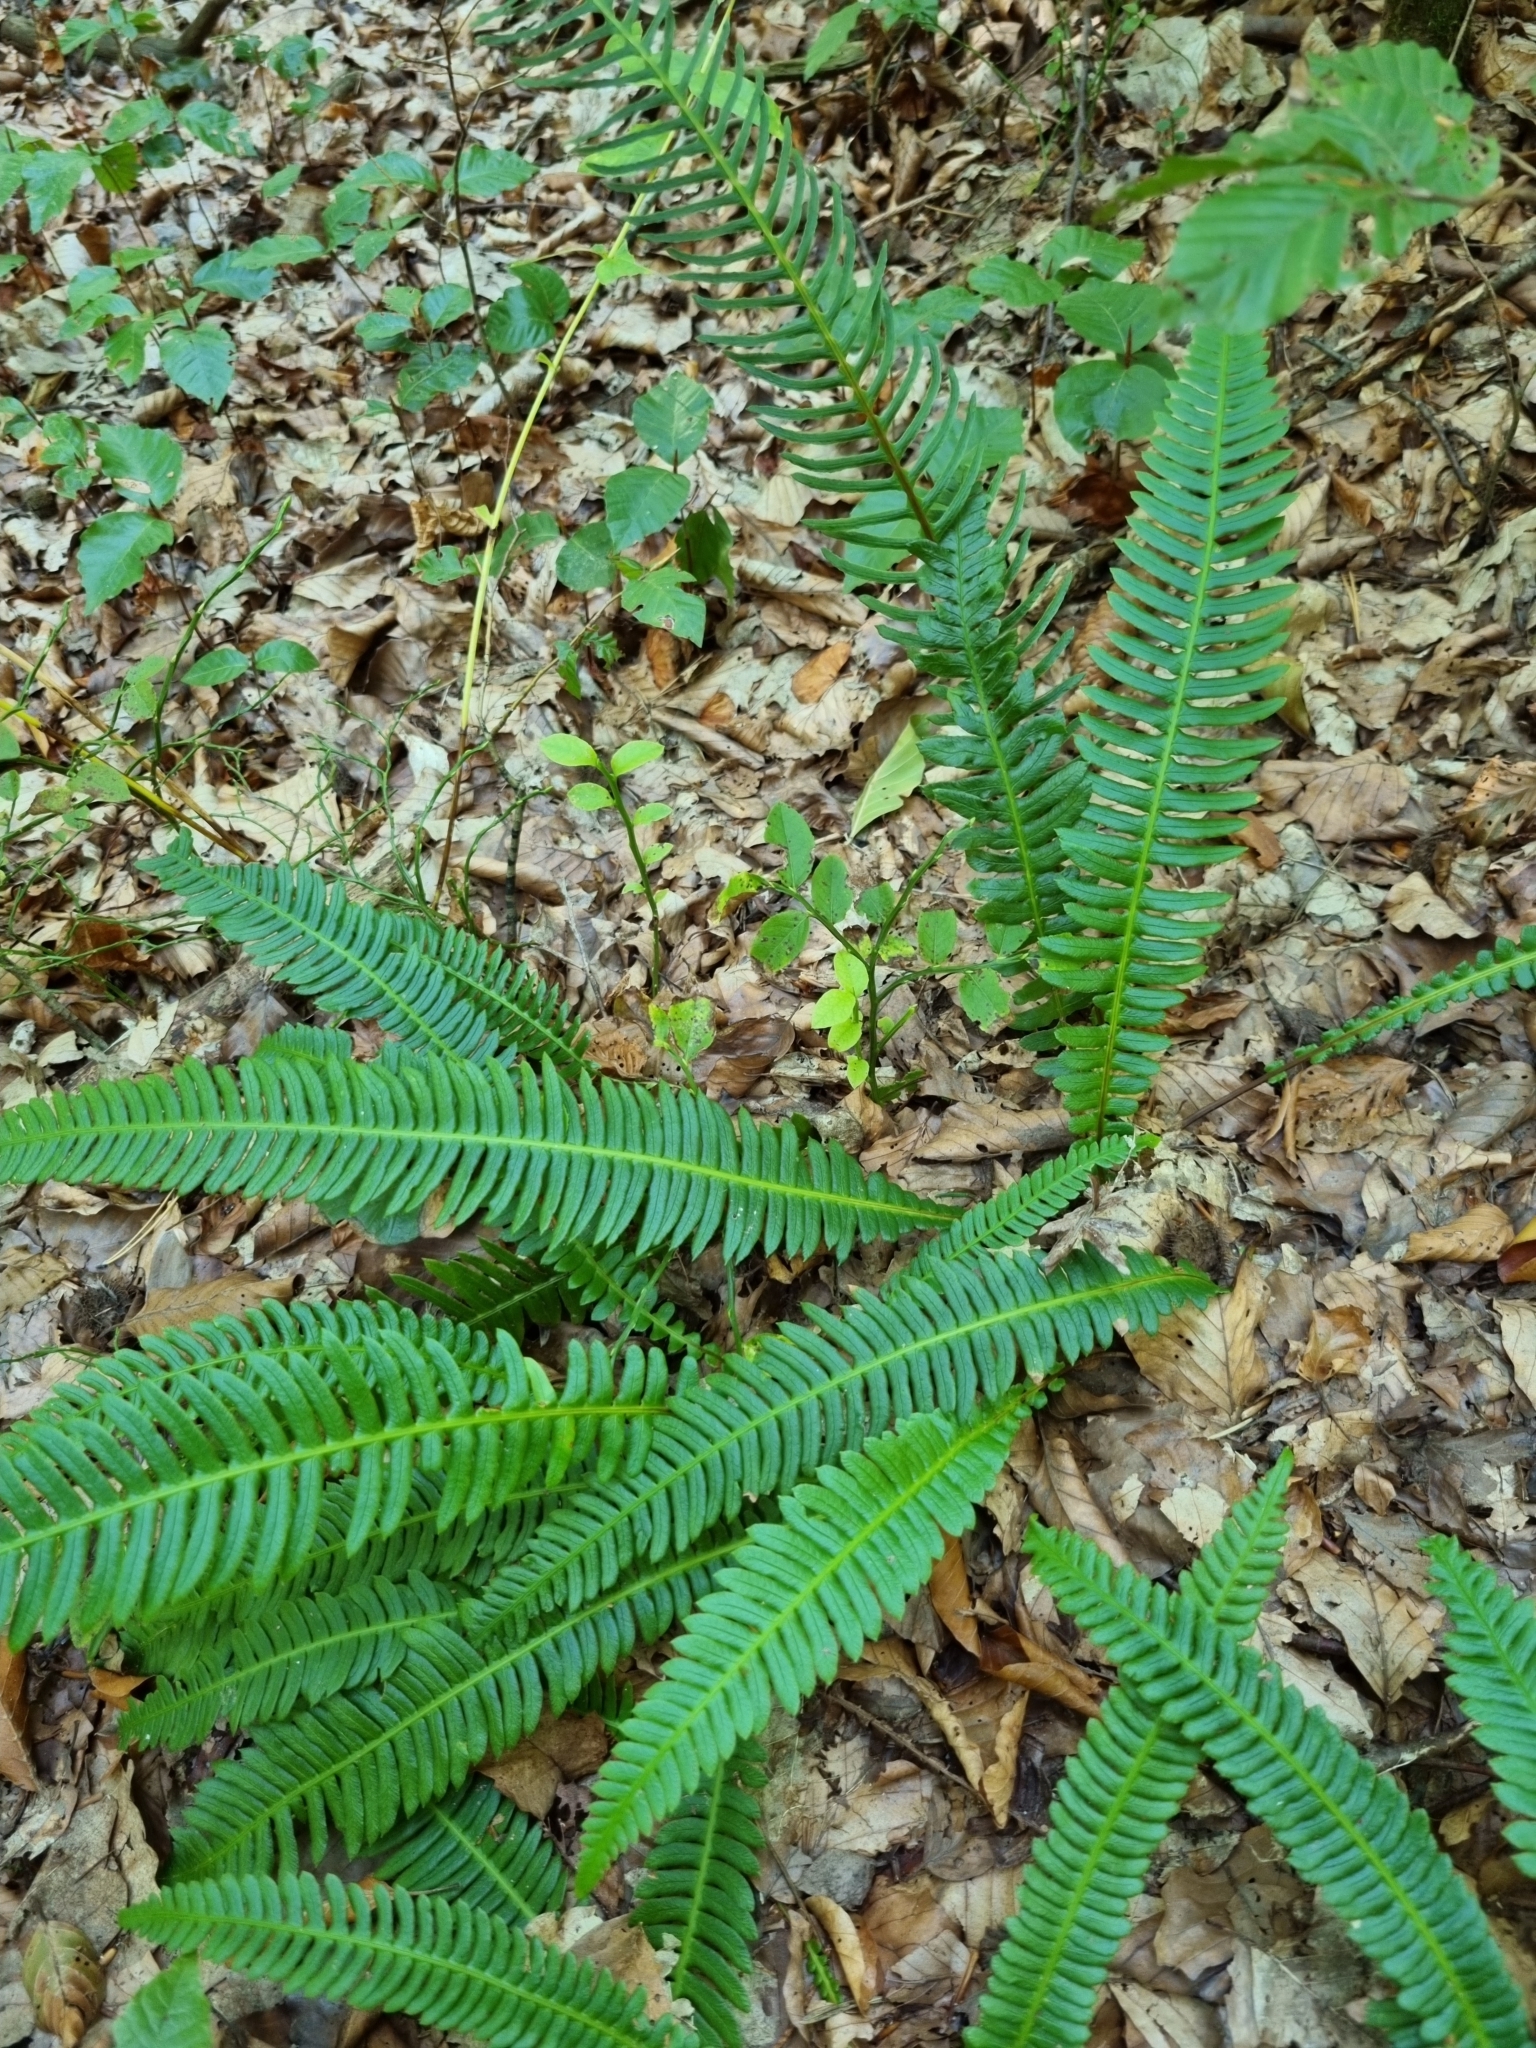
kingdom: Plantae
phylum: Tracheophyta
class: Polypodiopsida
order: Polypodiales
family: Blechnaceae
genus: Struthiopteris
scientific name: Struthiopteris spicant
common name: Deer fern
